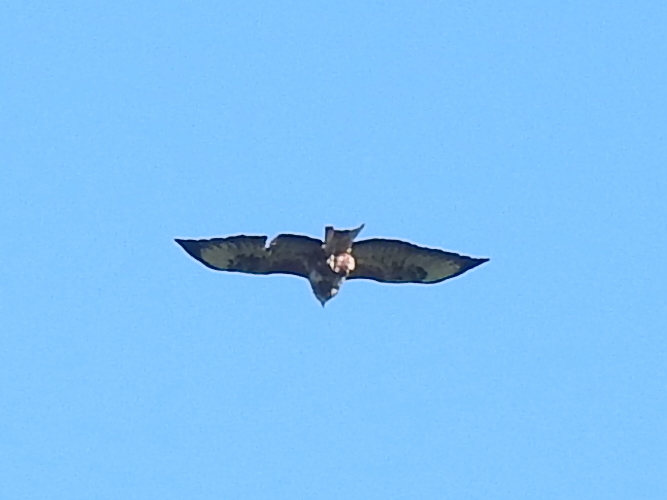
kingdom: Animalia
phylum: Chordata
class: Aves
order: Accipitriformes
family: Accipitridae
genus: Buteo
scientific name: Buteo buteo
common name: Common buzzard
